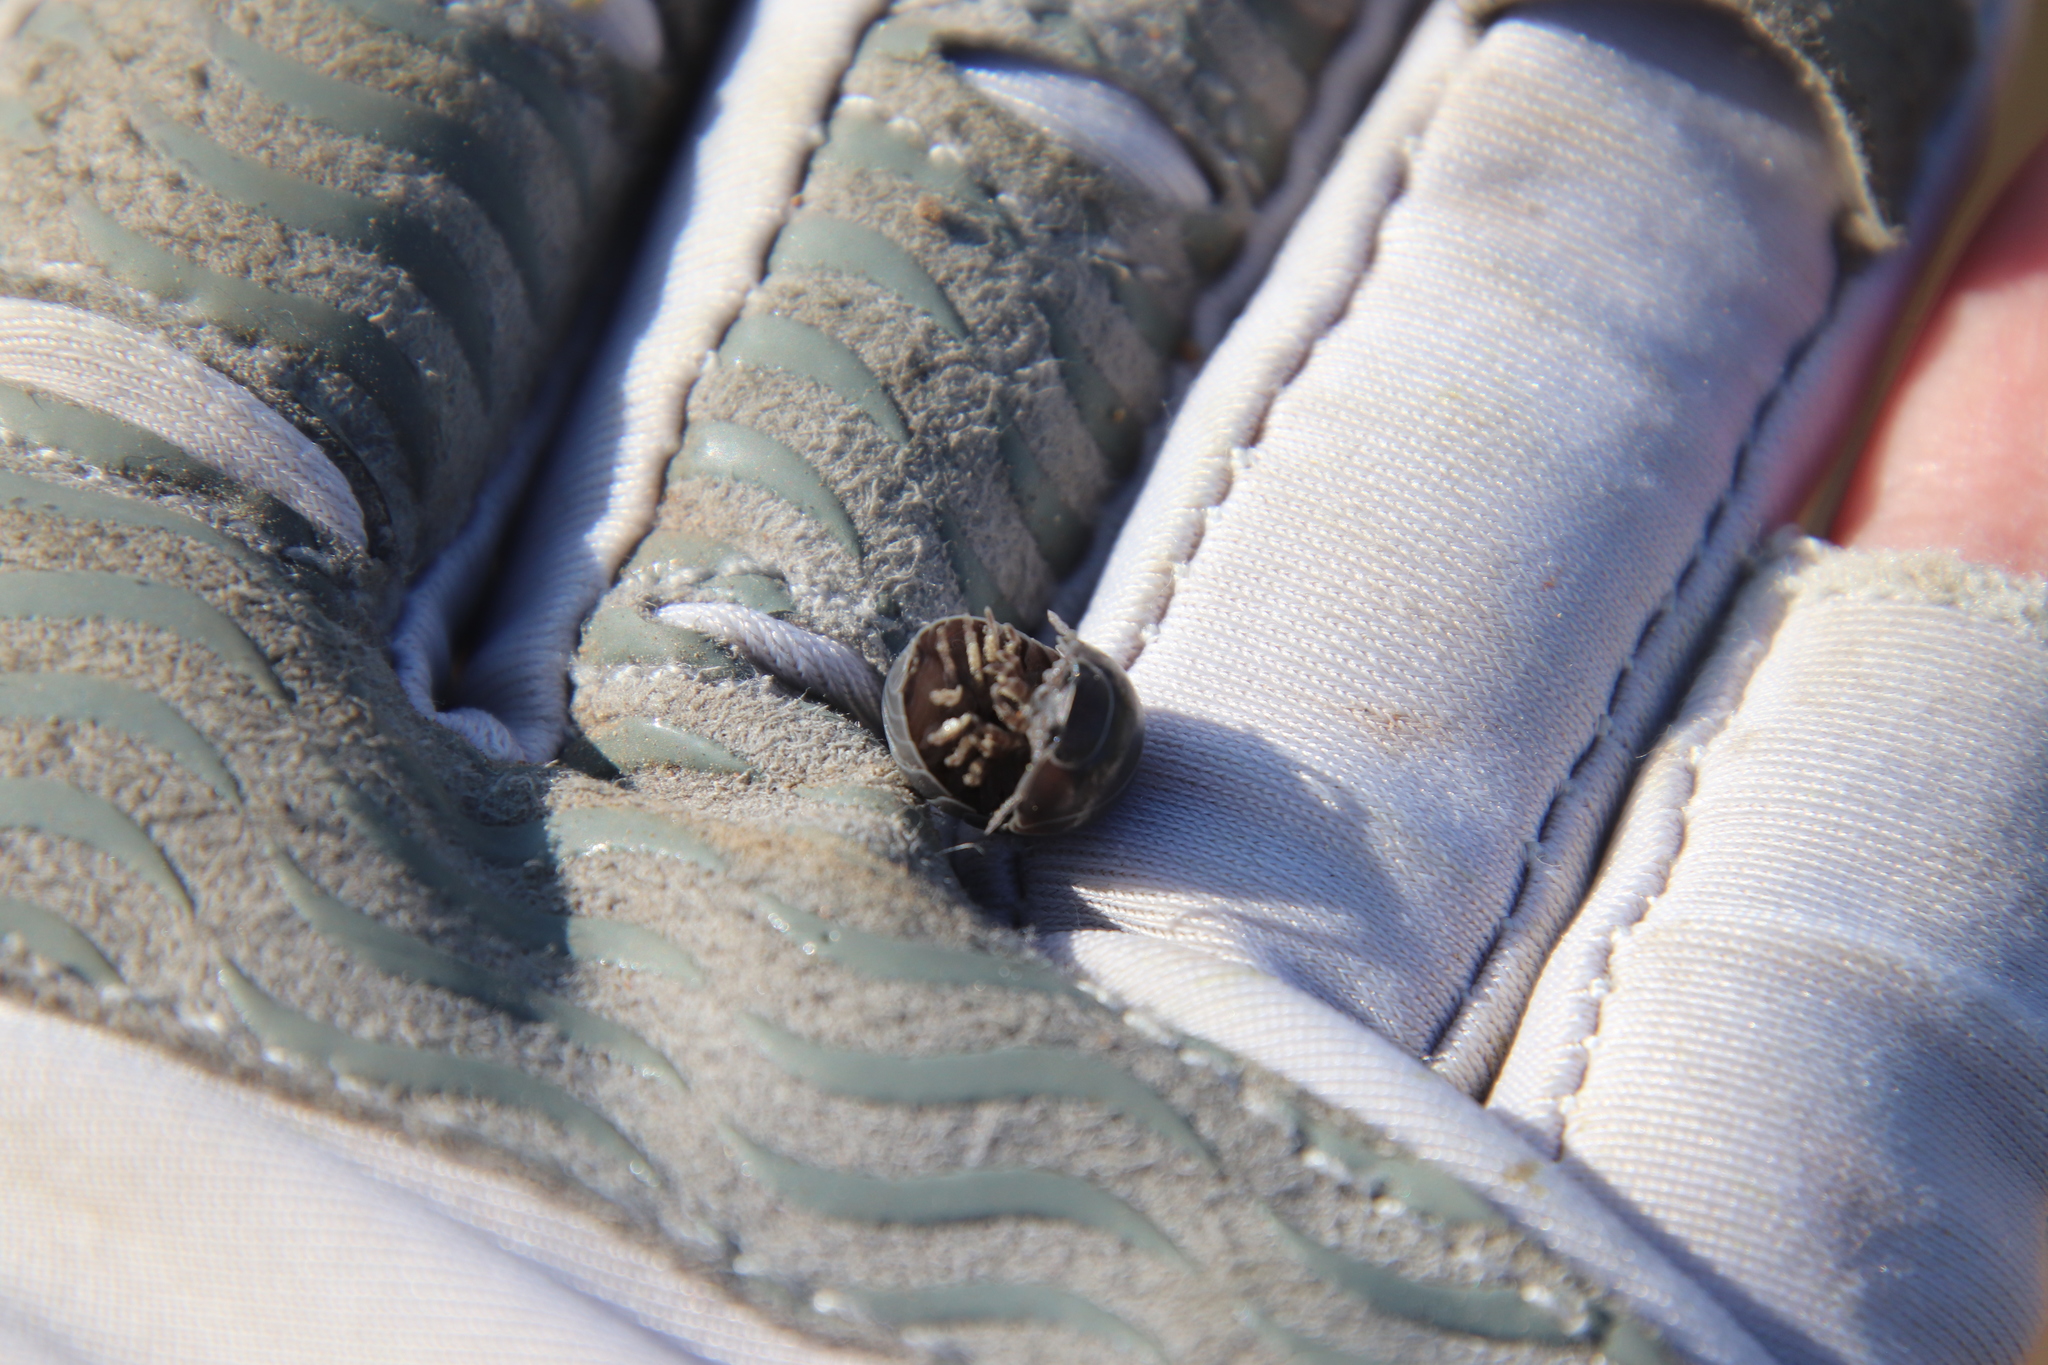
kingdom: Animalia
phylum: Arthropoda
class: Malacostraca
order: Isopoda
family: Armadillidiidae
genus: Armadillidium
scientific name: Armadillidium vulgare
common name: Common pill woodlouse
